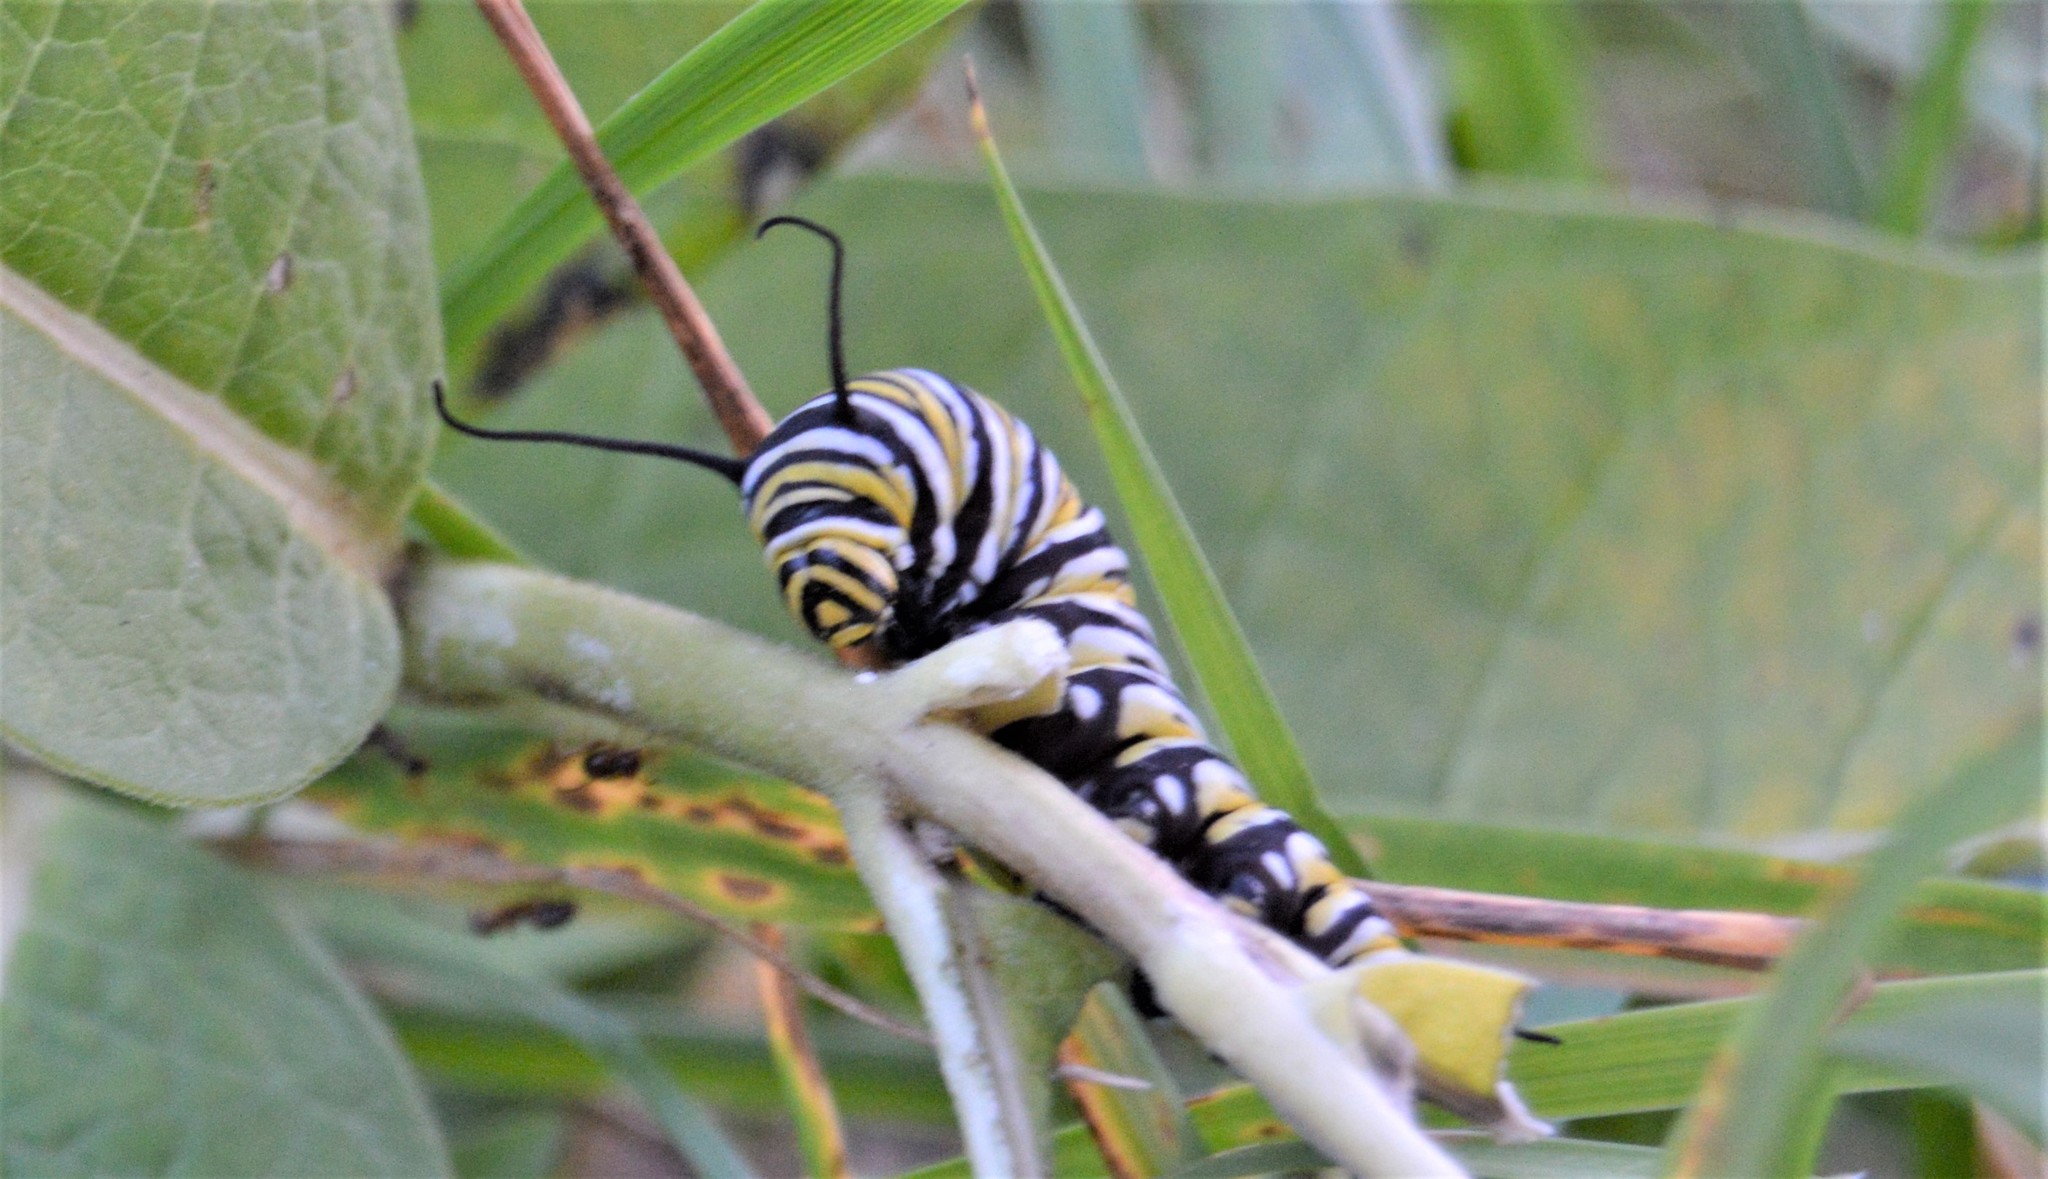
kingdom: Animalia
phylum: Arthropoda
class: Insecta
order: Lepidoptera
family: Nymphalidae
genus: Danaus
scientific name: Danaus plexippus
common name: Monarch
